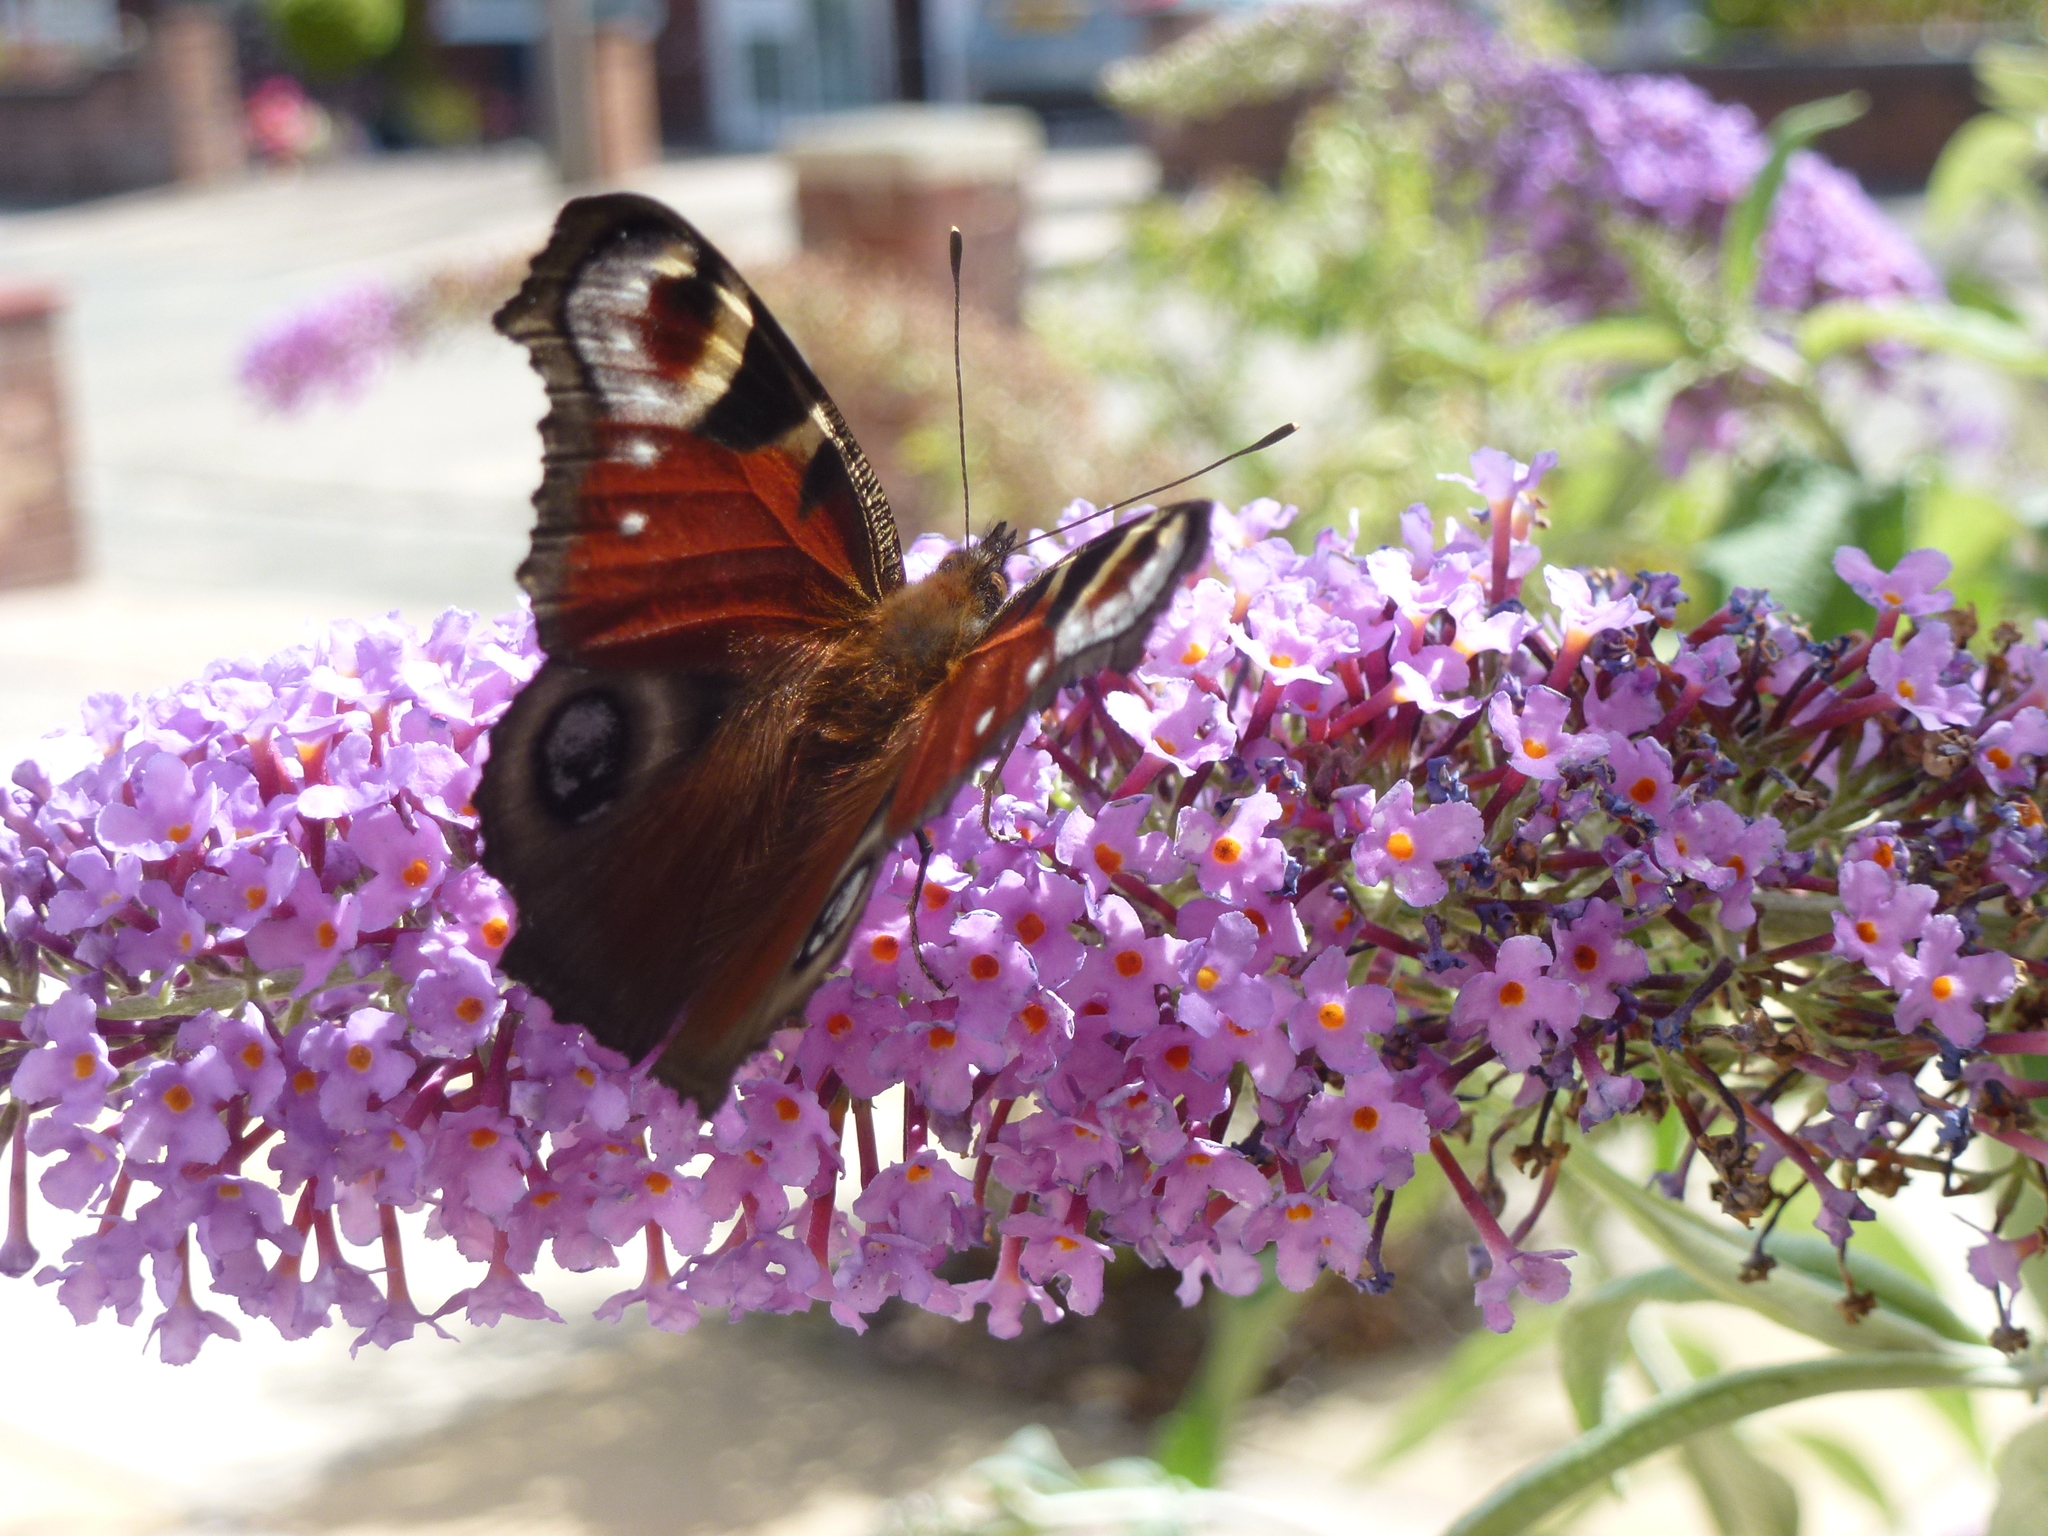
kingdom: Animalia
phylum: Arthropoda
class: Insecta
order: Lepidoptera
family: Nymphalidae
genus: Aglais
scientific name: Aglais io
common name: Peacock
